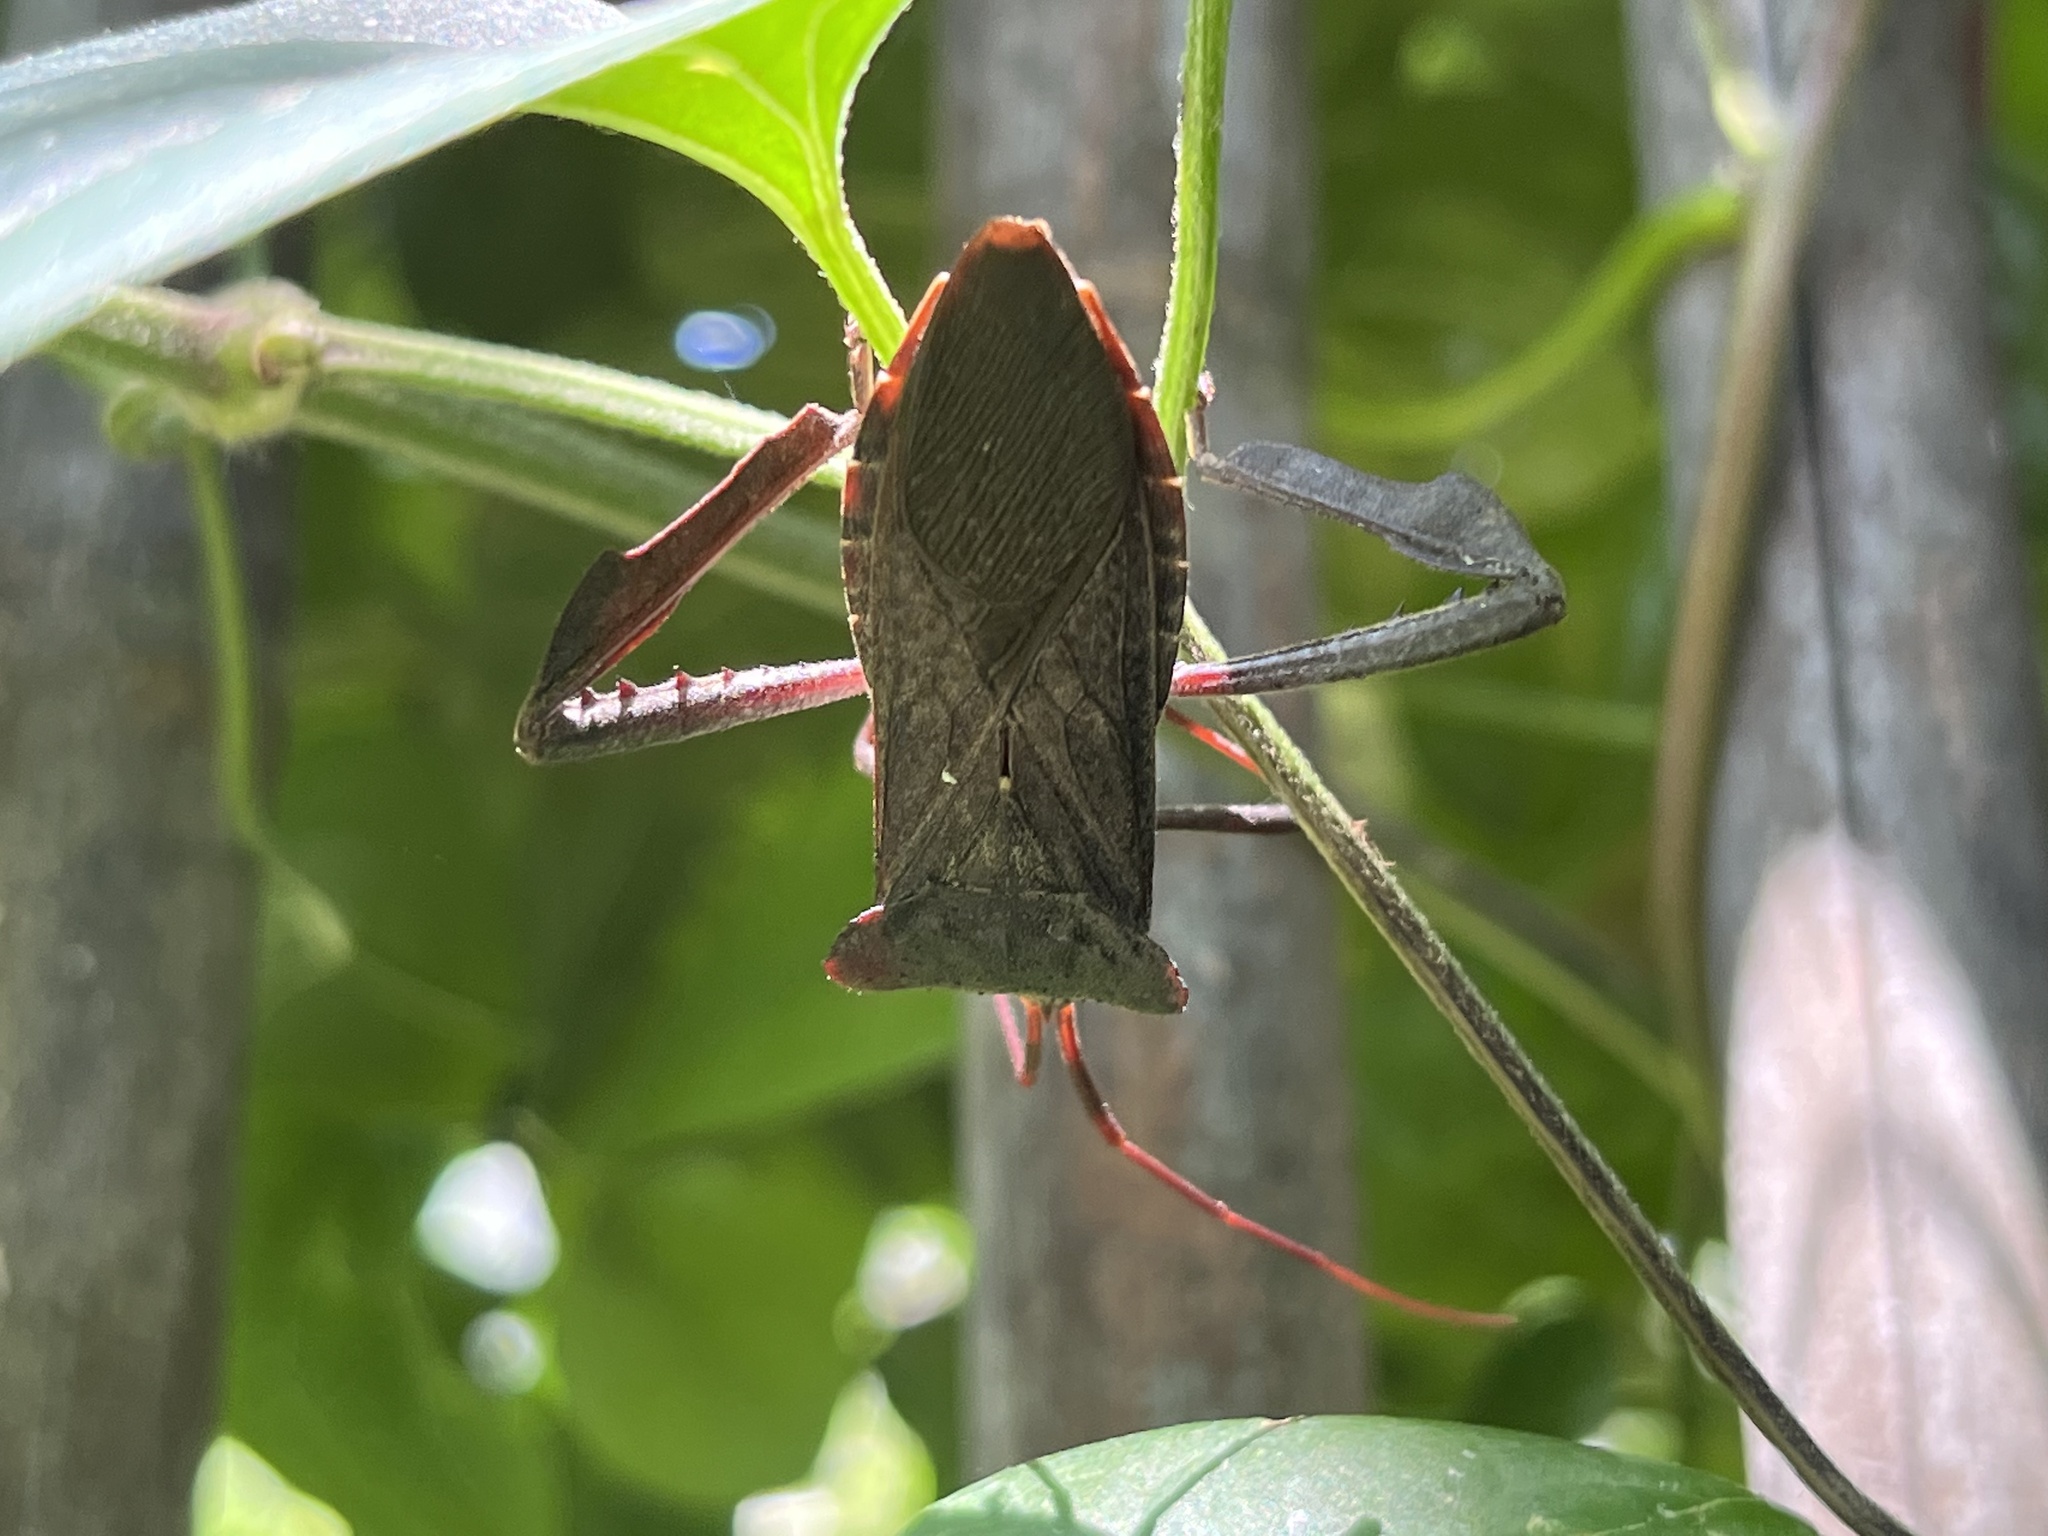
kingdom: Animalia
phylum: Arthropoda
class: Insecta
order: Hemiptera
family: Coreidae
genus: Acanthocephala
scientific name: Acanthocephala declivis
